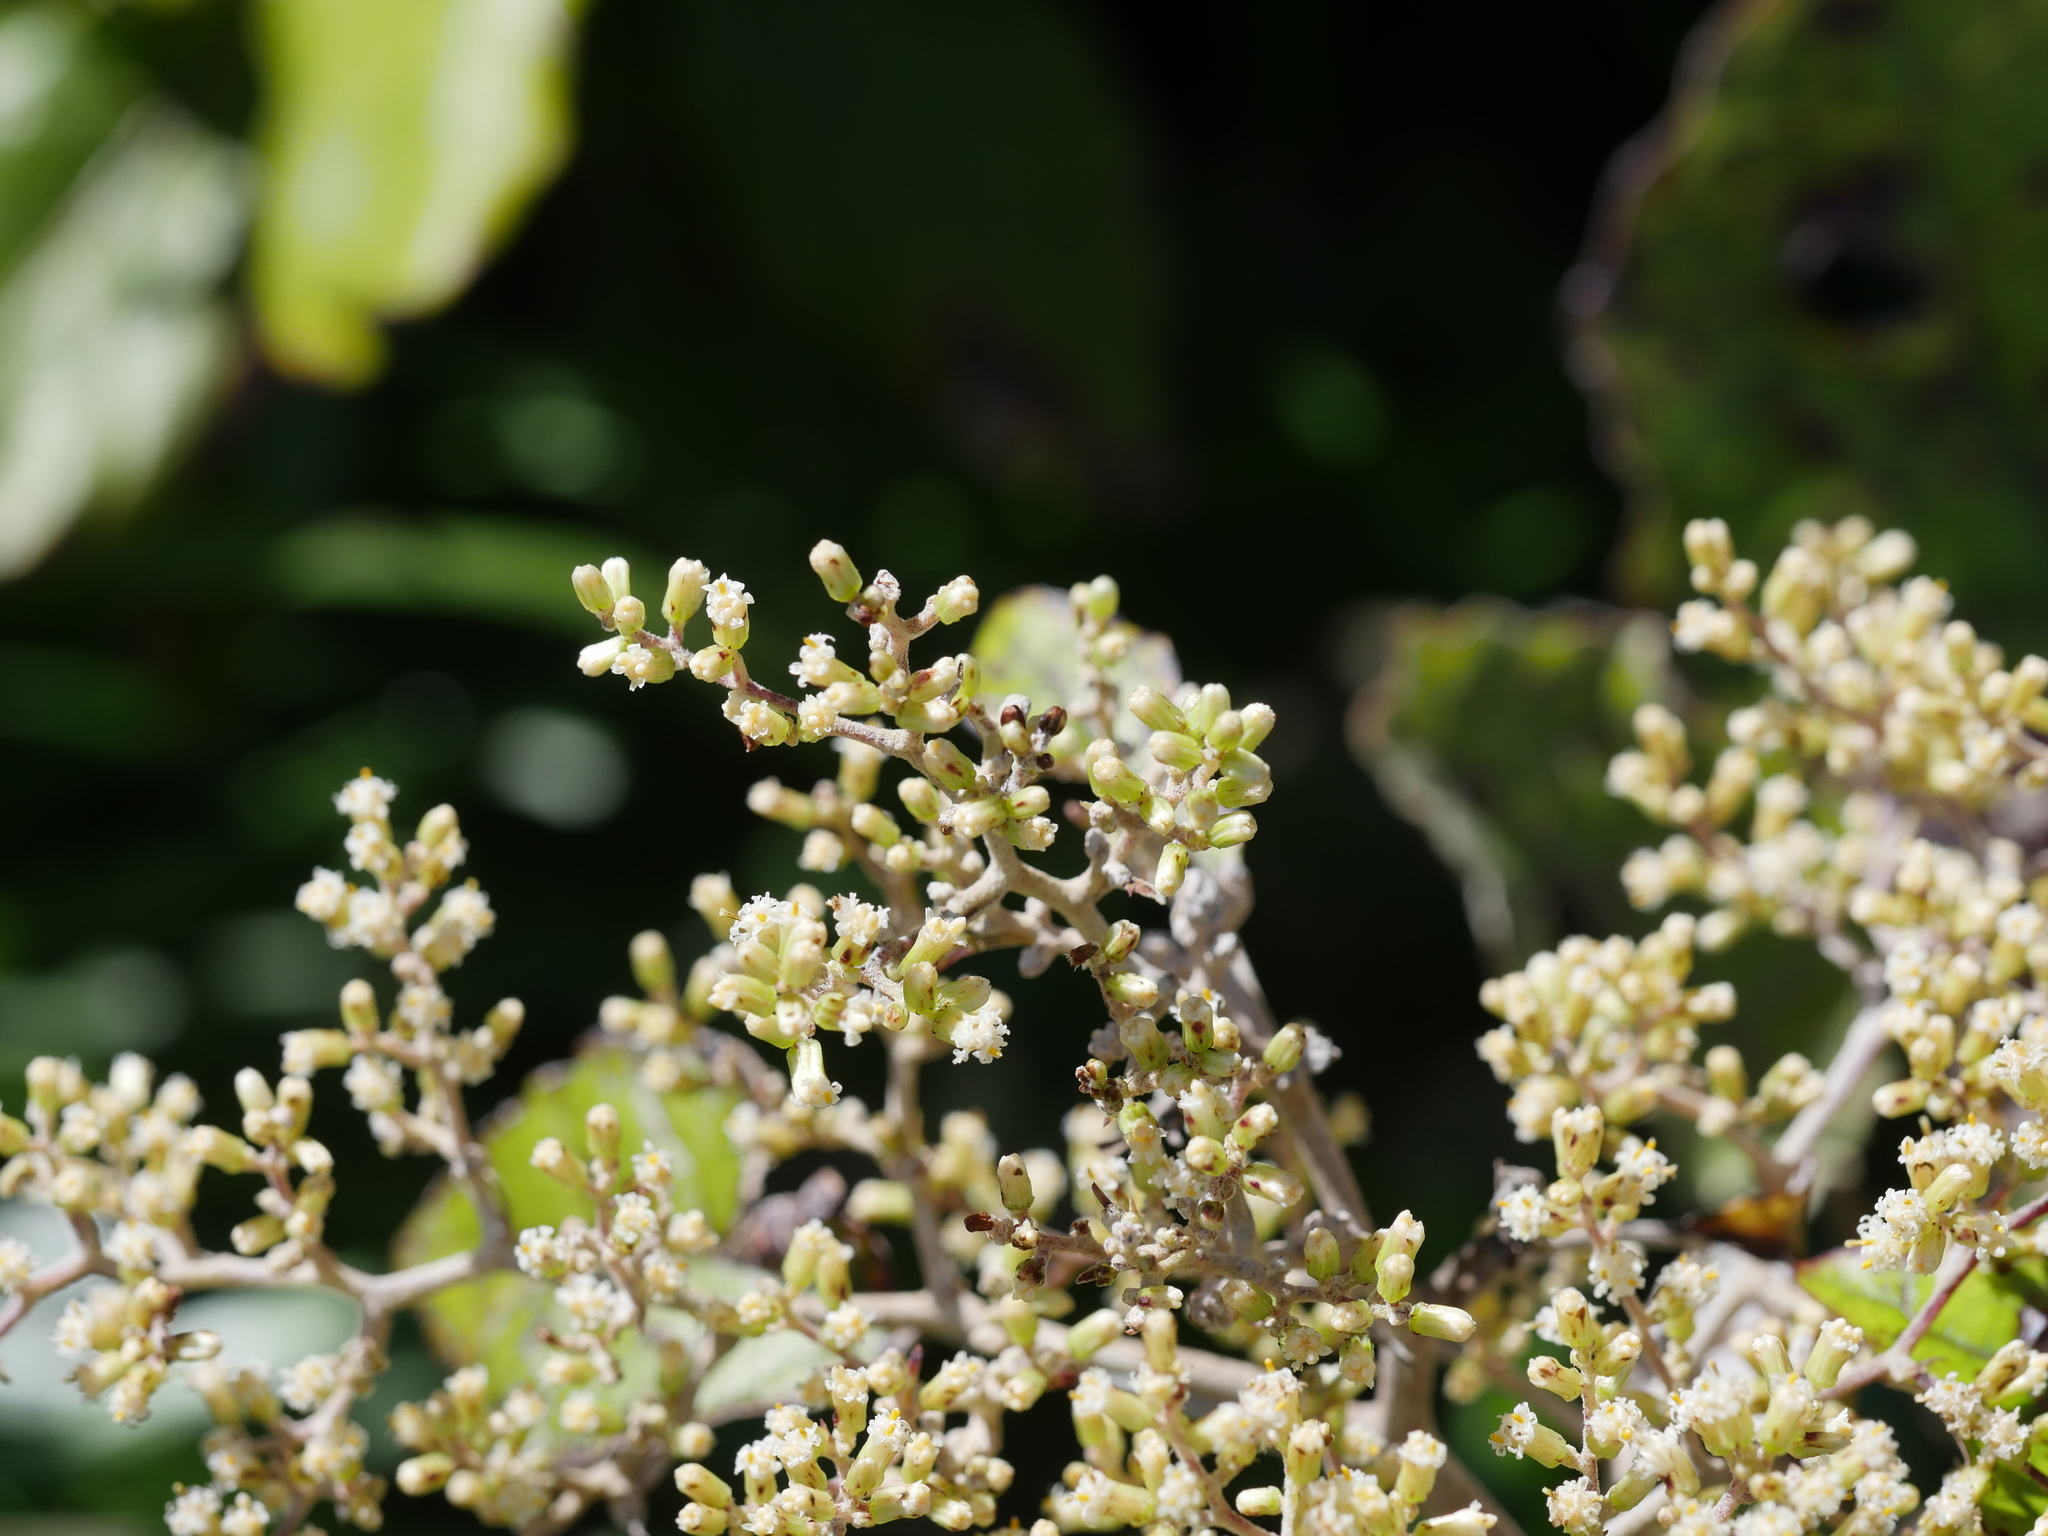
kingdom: Plantae
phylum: Tracheophyta
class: Magnoliopsida
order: Asterales
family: Asteraceae
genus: Brachyglottis
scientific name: Brachyglottis repanda
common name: Hedge ragwort
